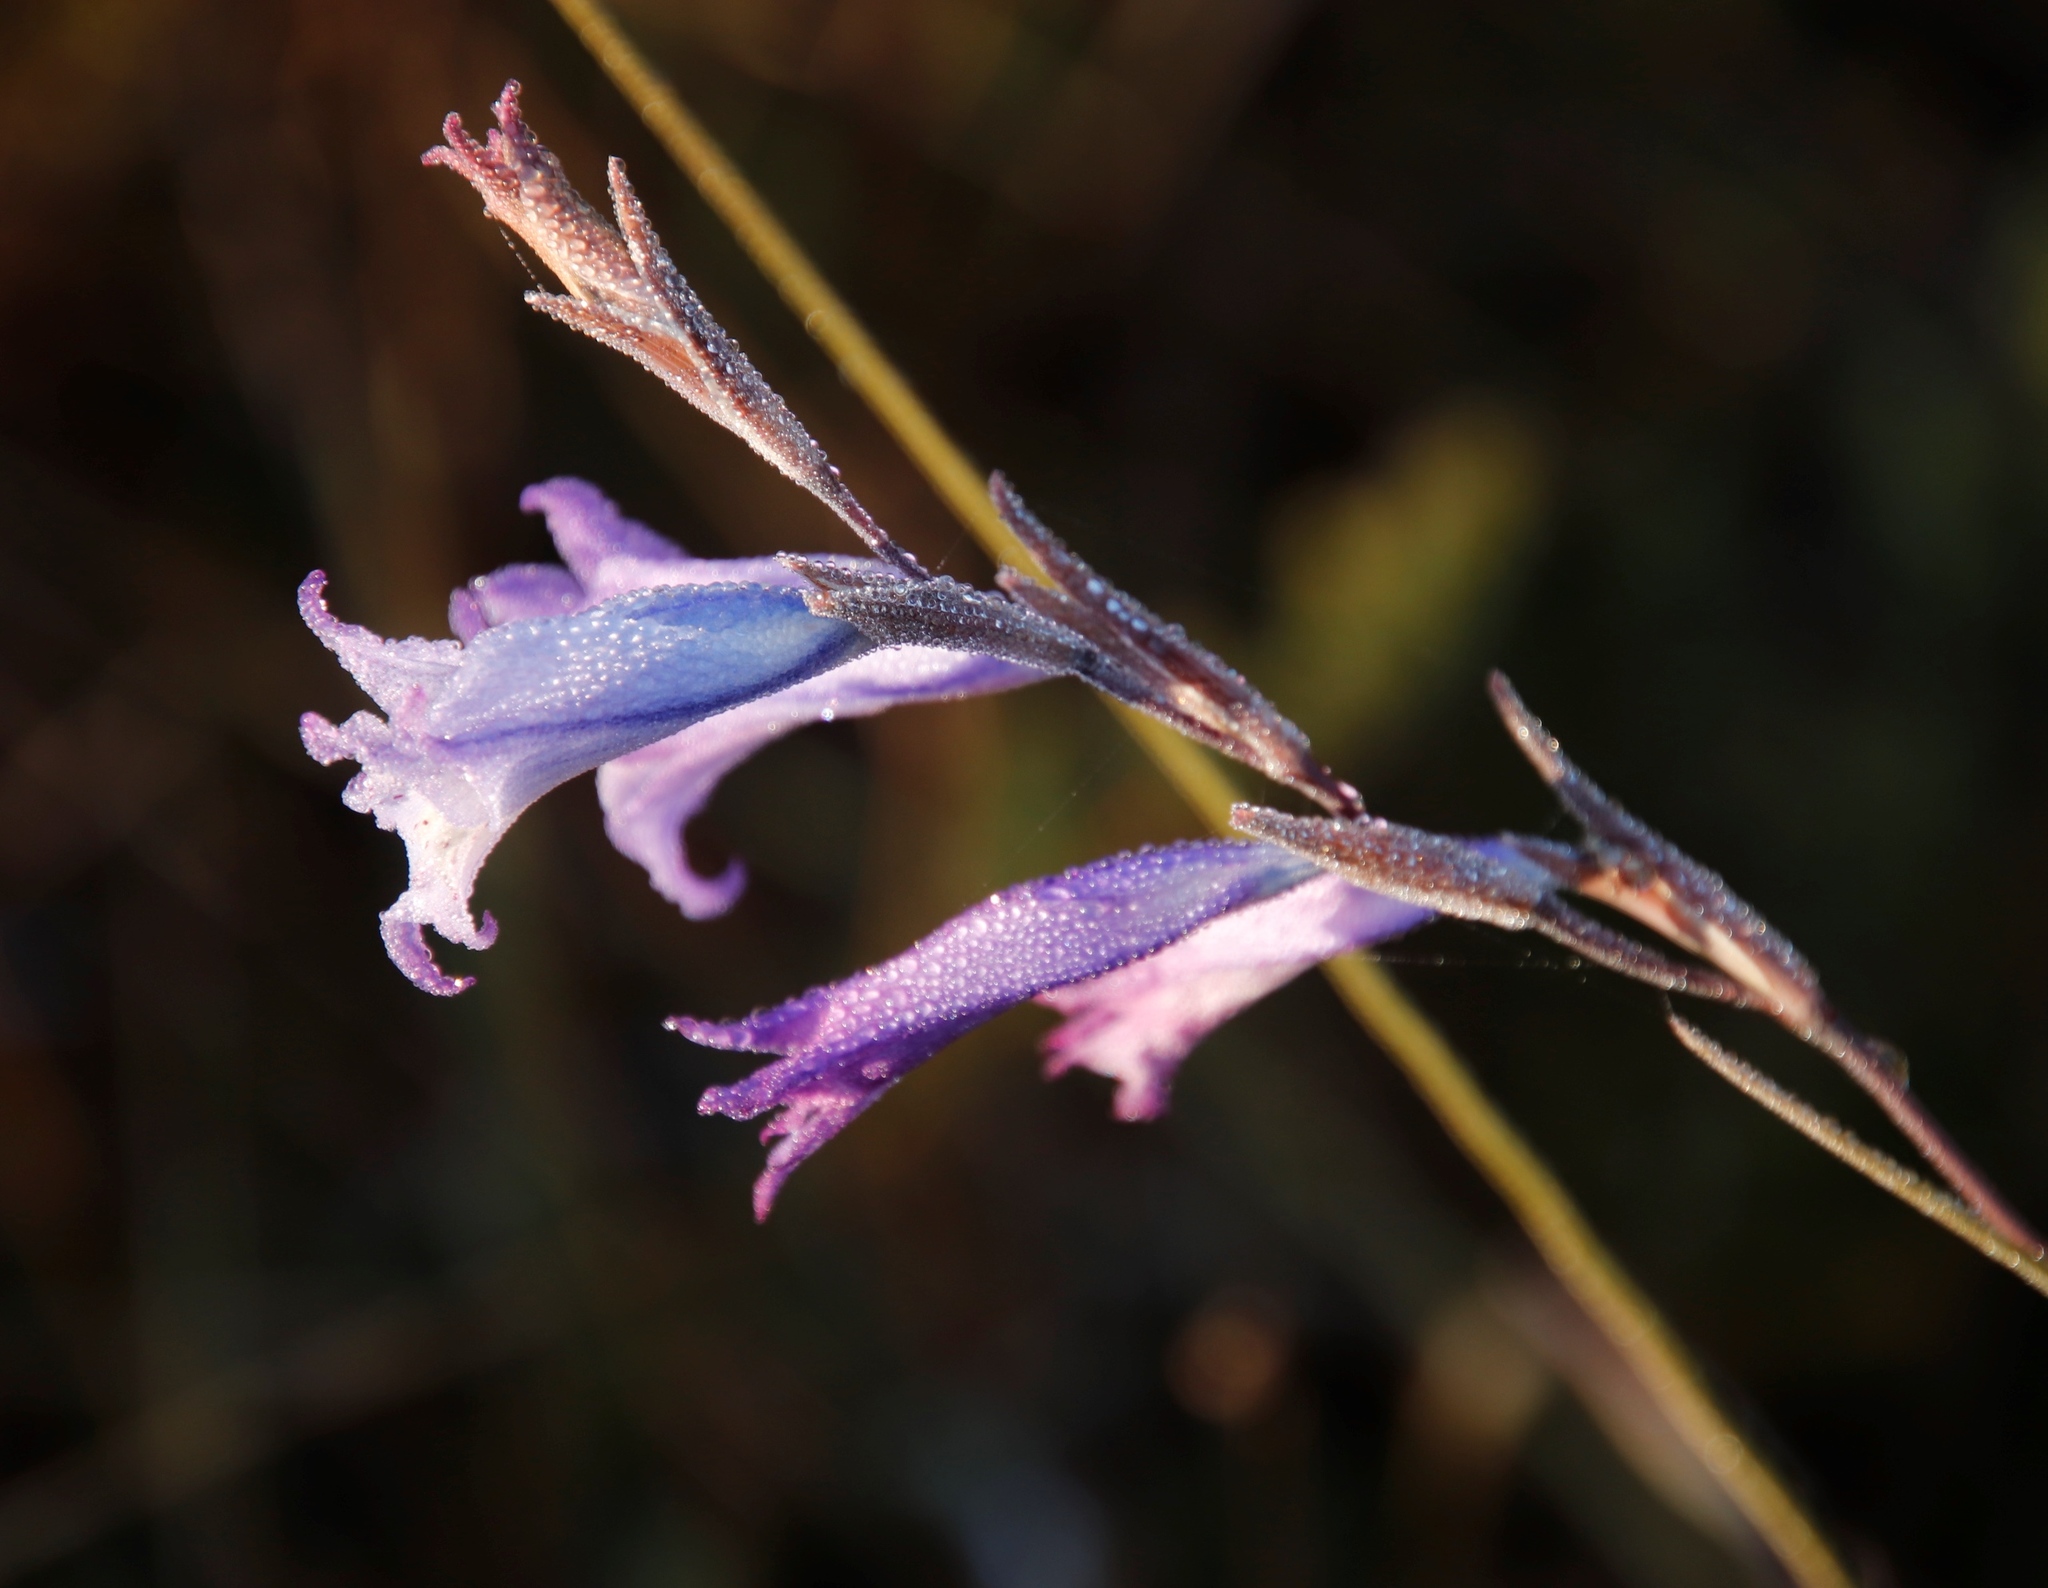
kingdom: Plantae
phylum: Tracheophyta
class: Liliopsida
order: Asparagales
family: Iridaceae
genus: Gladiolus
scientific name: Gladiolus gracilis
